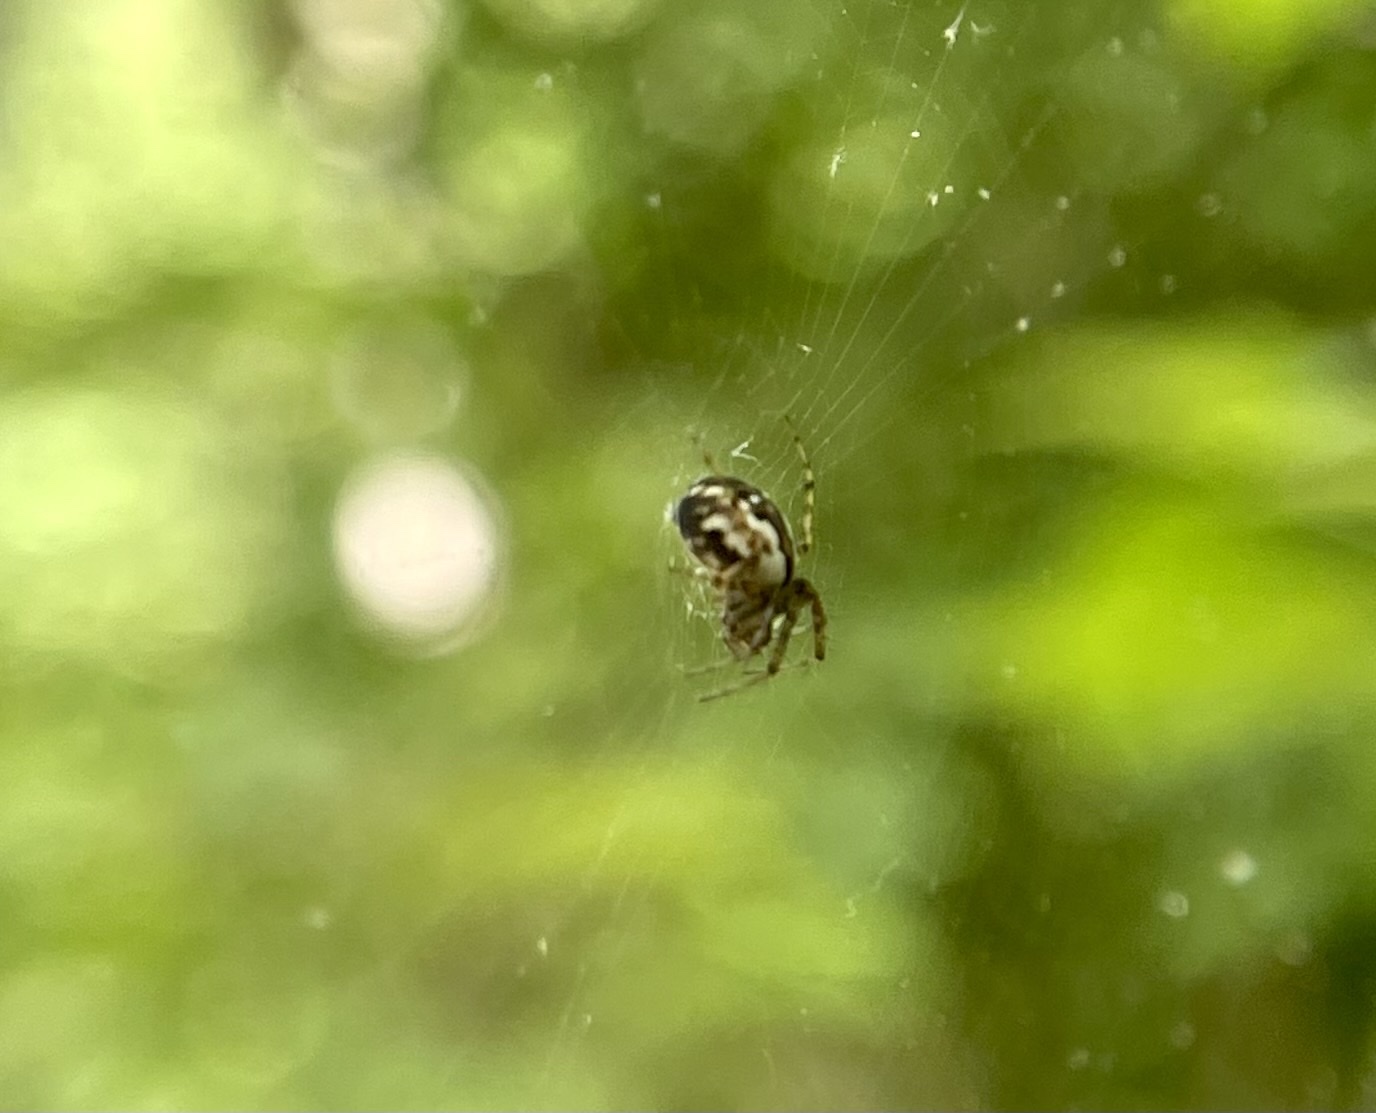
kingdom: Animalia
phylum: Arthropoda
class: Arachnida
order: Araneae
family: Araneidae
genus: Mangora
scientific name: Mangora placida
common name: Tuft-legged orbweaver
